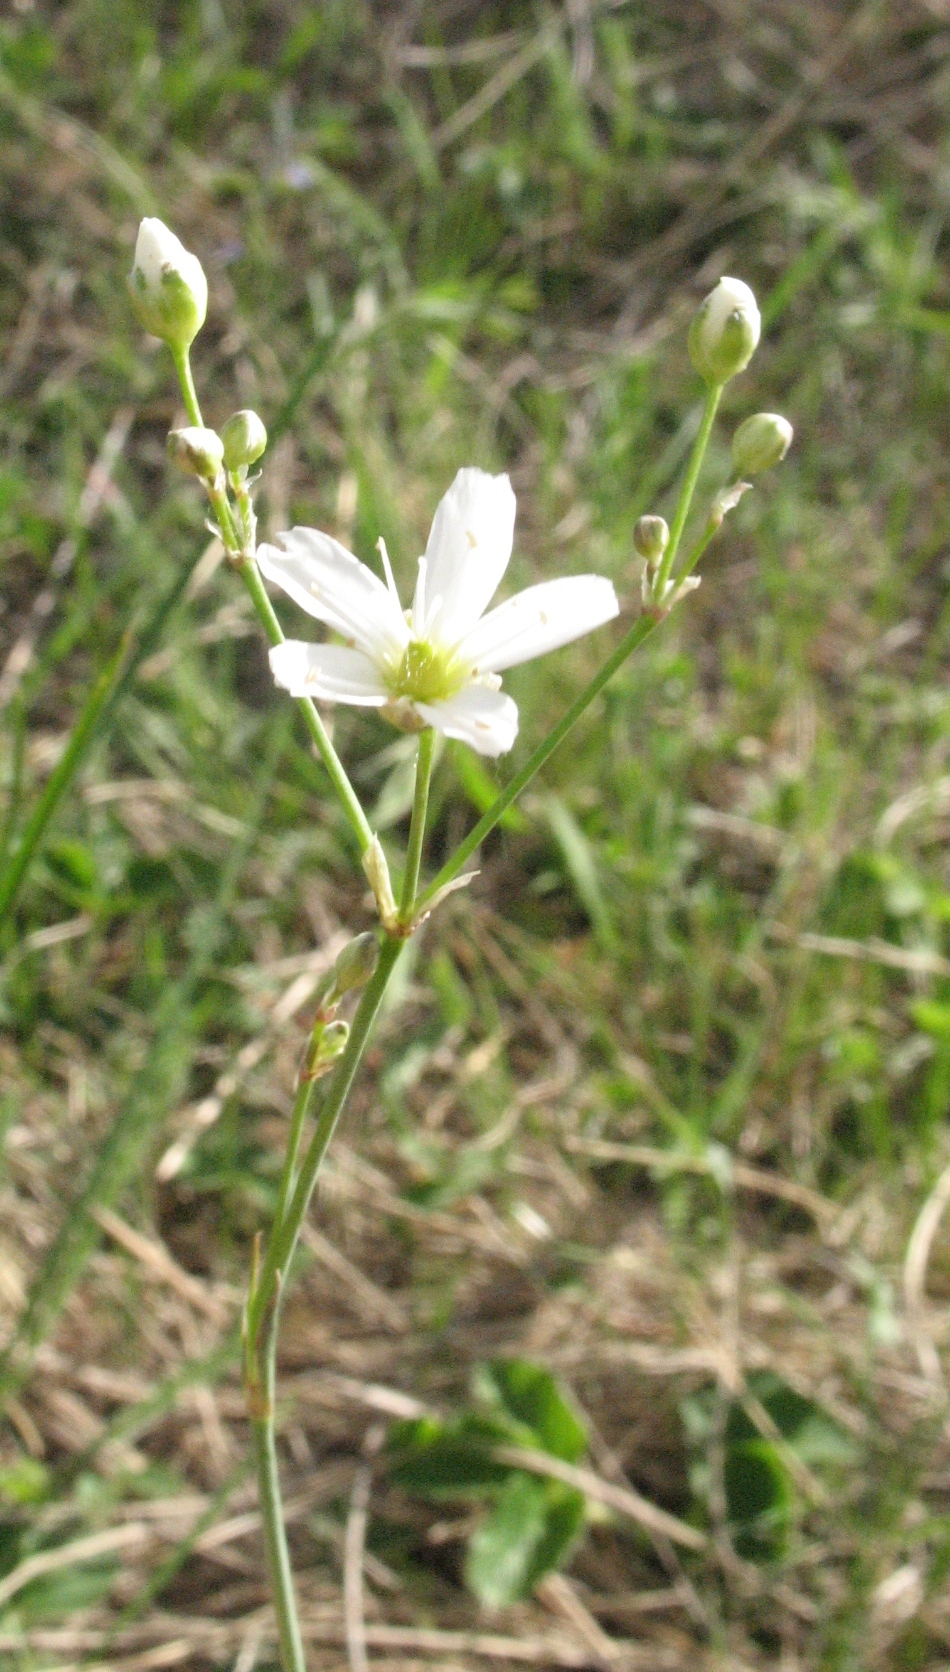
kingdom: Plantae
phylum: Tracheophyta
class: Magnoliopsida
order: Caryophyllales
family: Caryophyllaceae
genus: Eremogone
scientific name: Eremogone saxatilis
